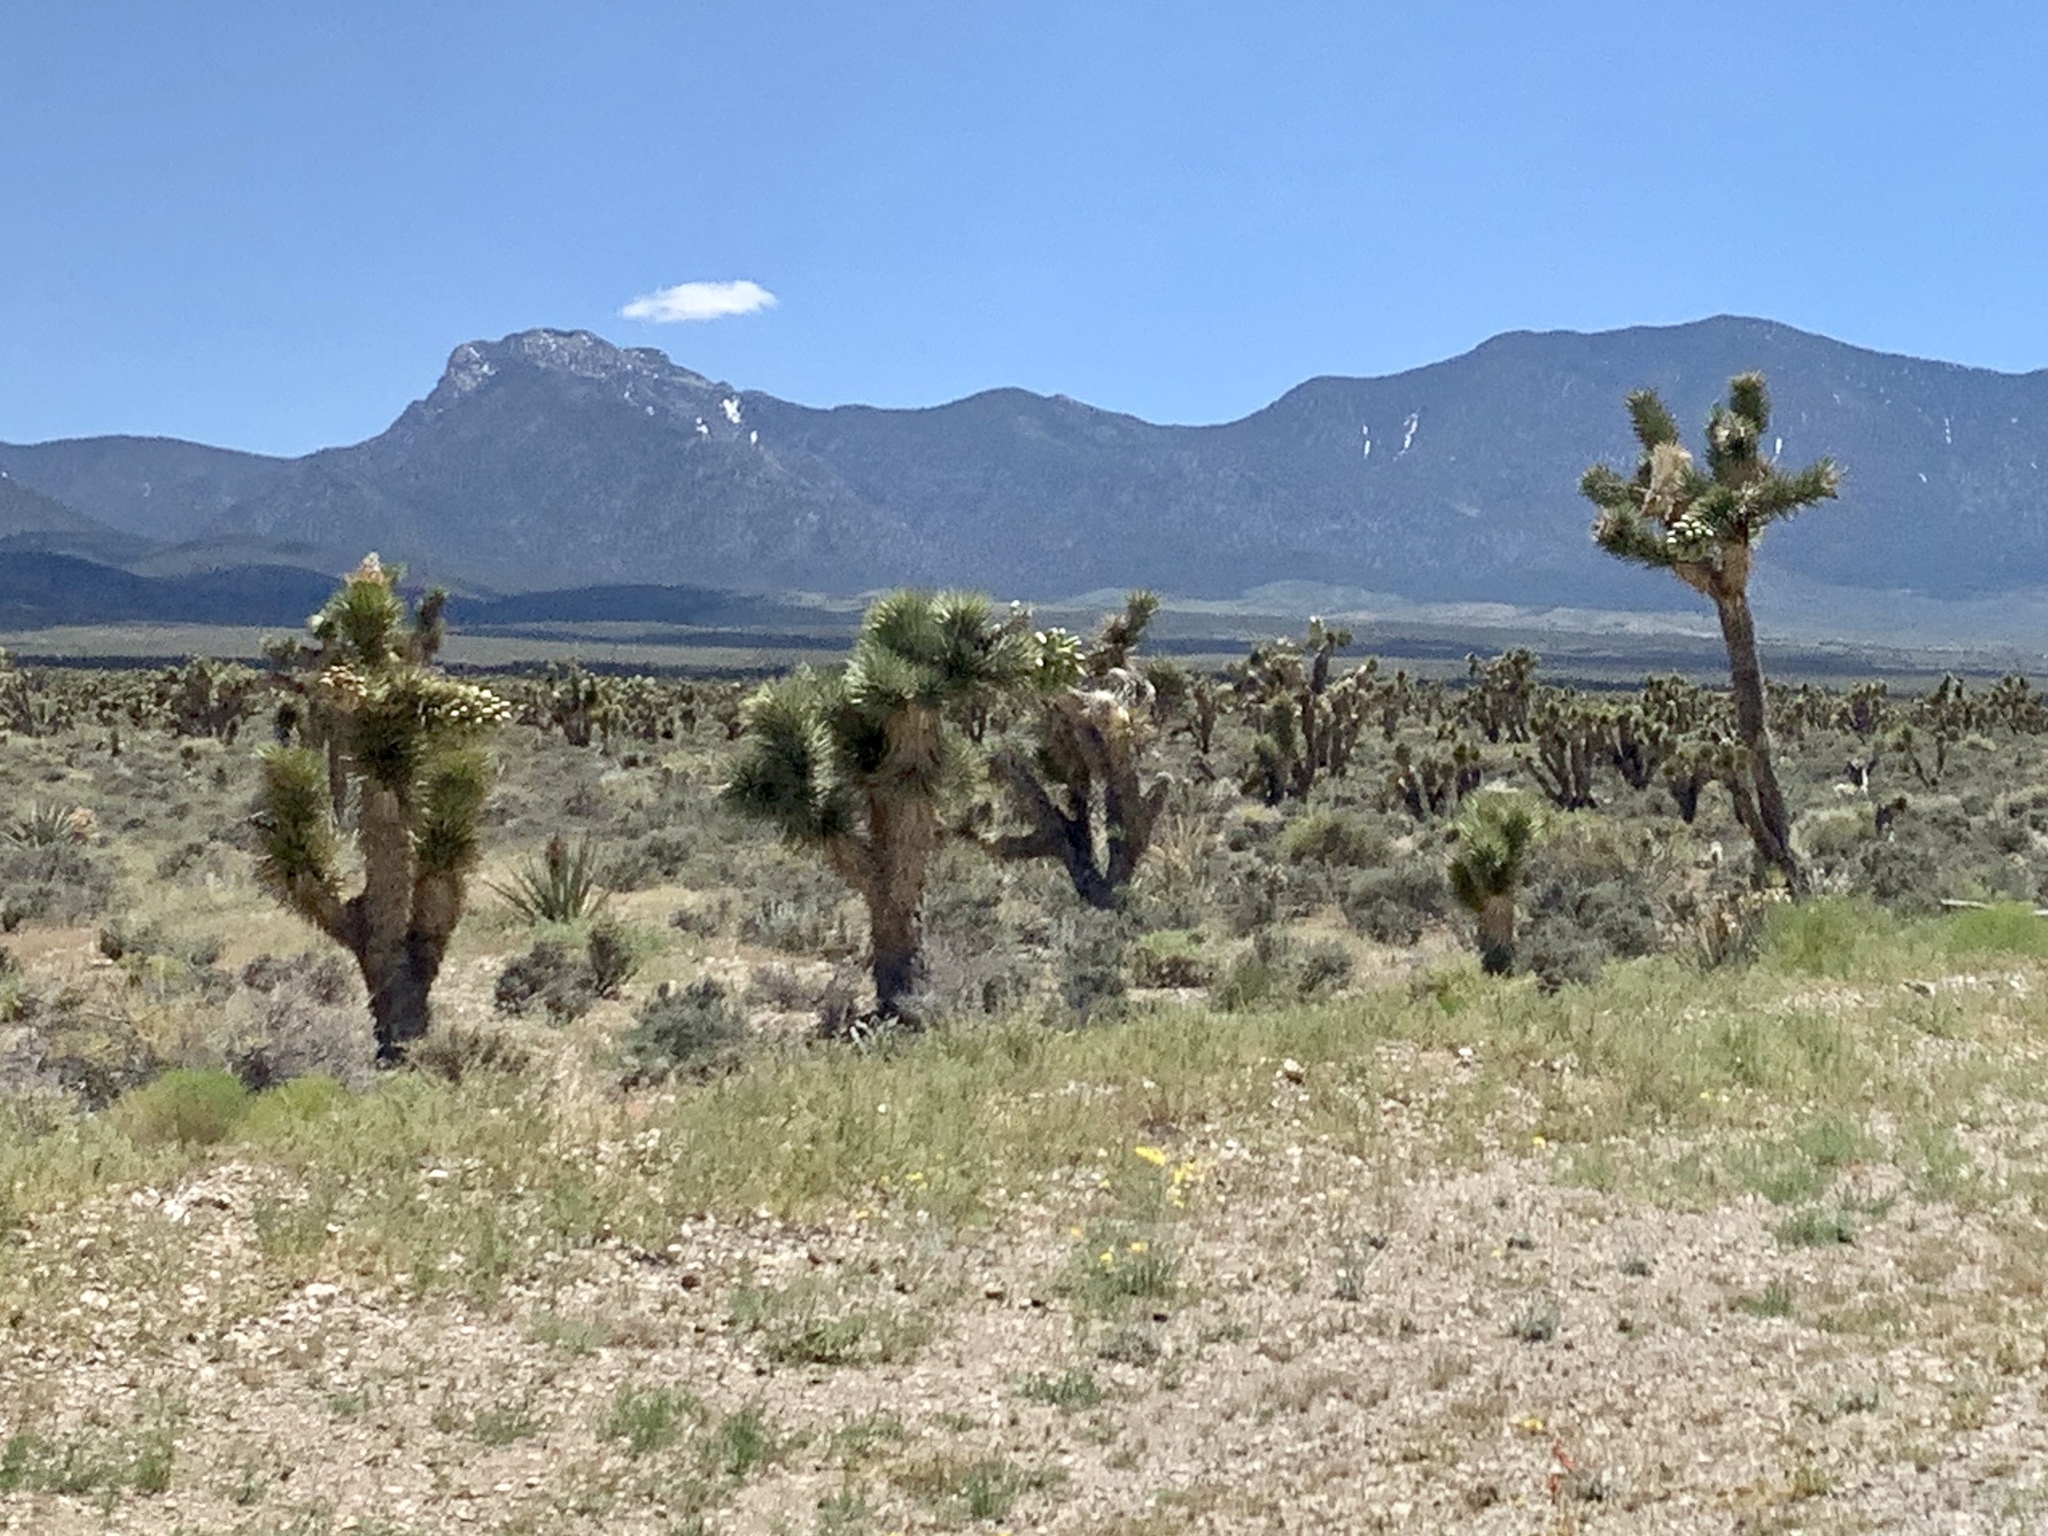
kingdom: Plantae
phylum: Tracheophyta
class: Liliopsida
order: Asparagales
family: Asparagaceae
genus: Yucca
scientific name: Yucca brevifolia
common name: Joshua tree
